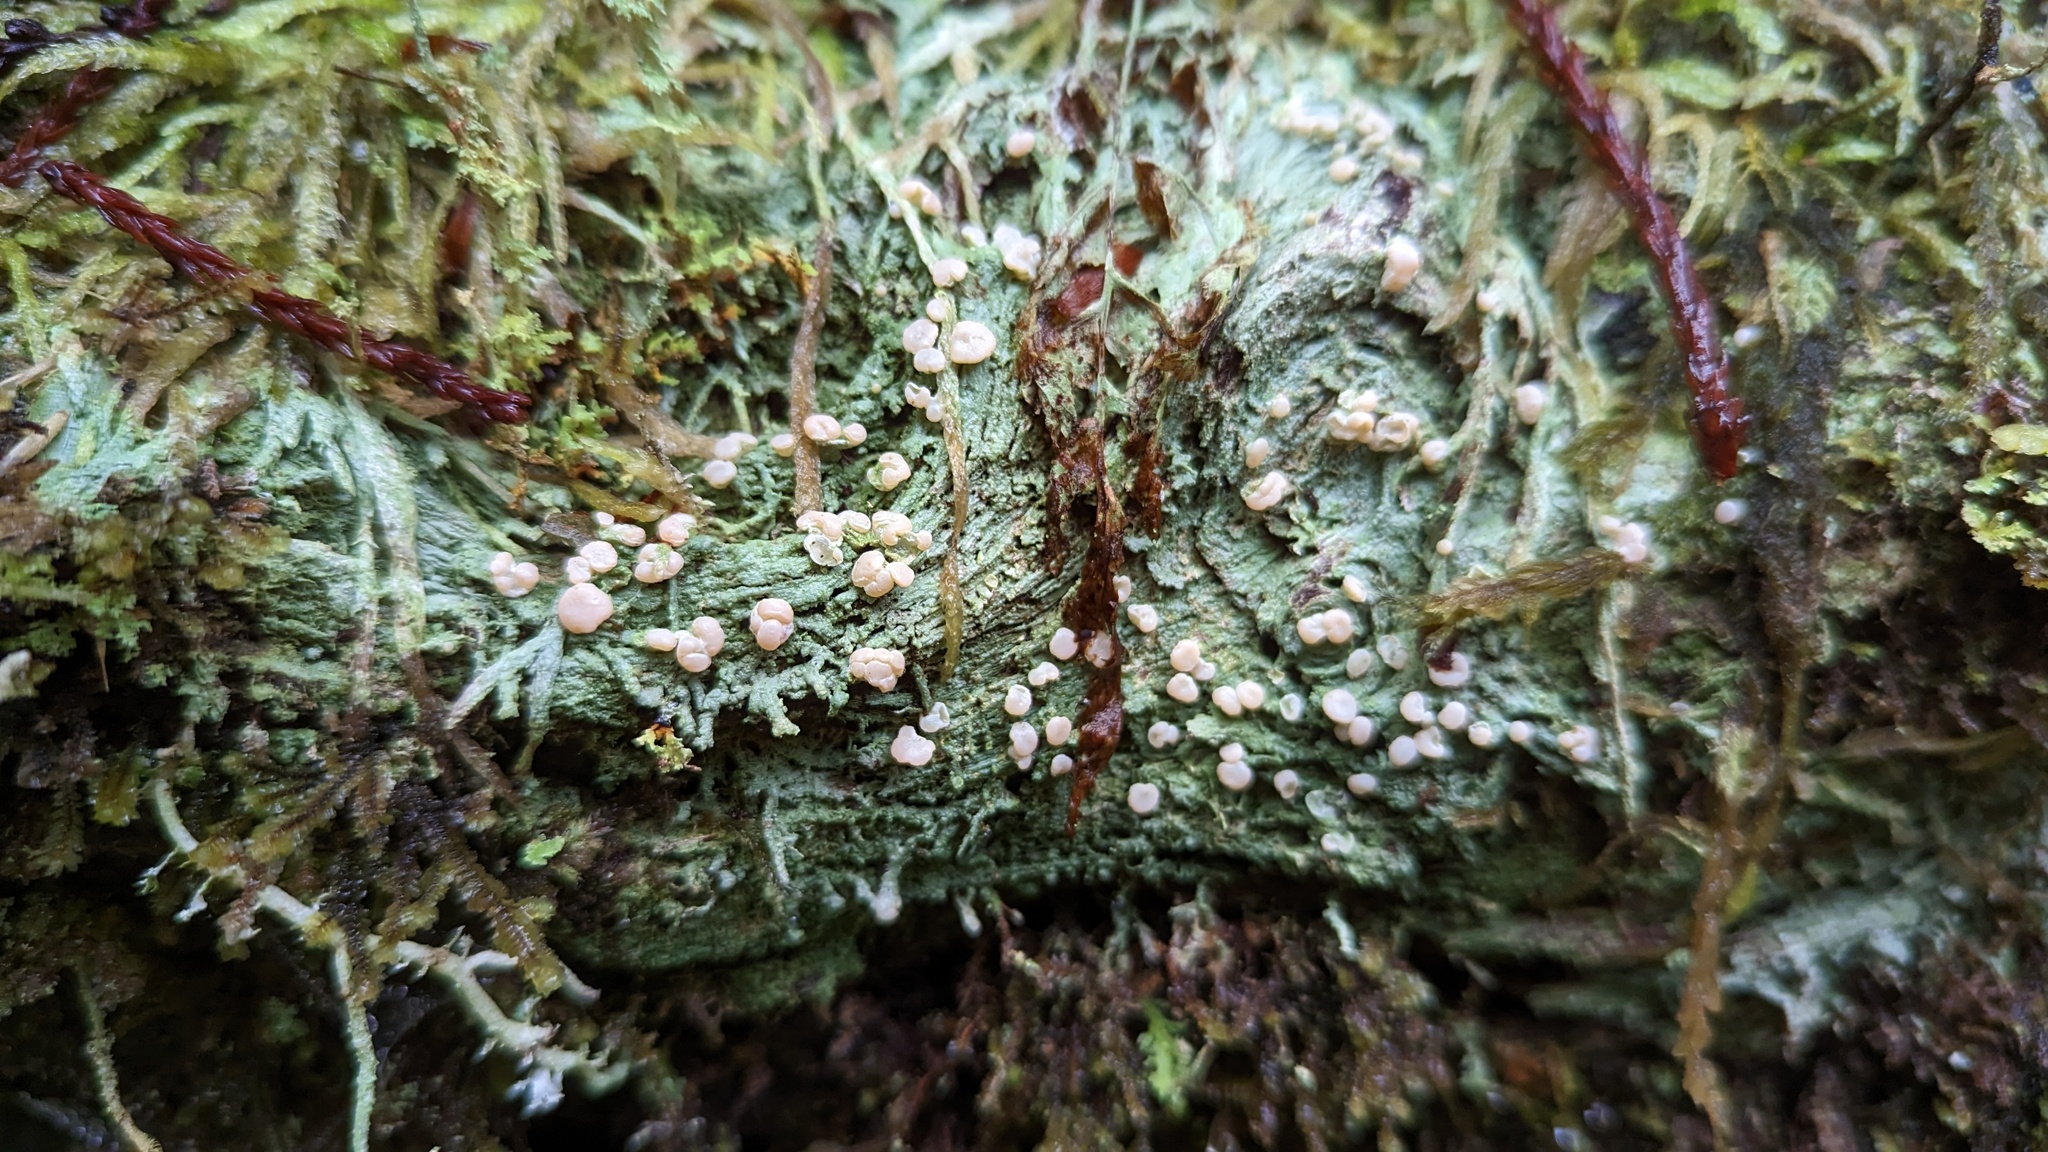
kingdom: Fungi
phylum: Ascomycota
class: Lecanoromycetes
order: Pertusariales
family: Icmadophilaceae
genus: Icmadophila
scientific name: Icmadophila ericetorum
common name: Candy lichen
